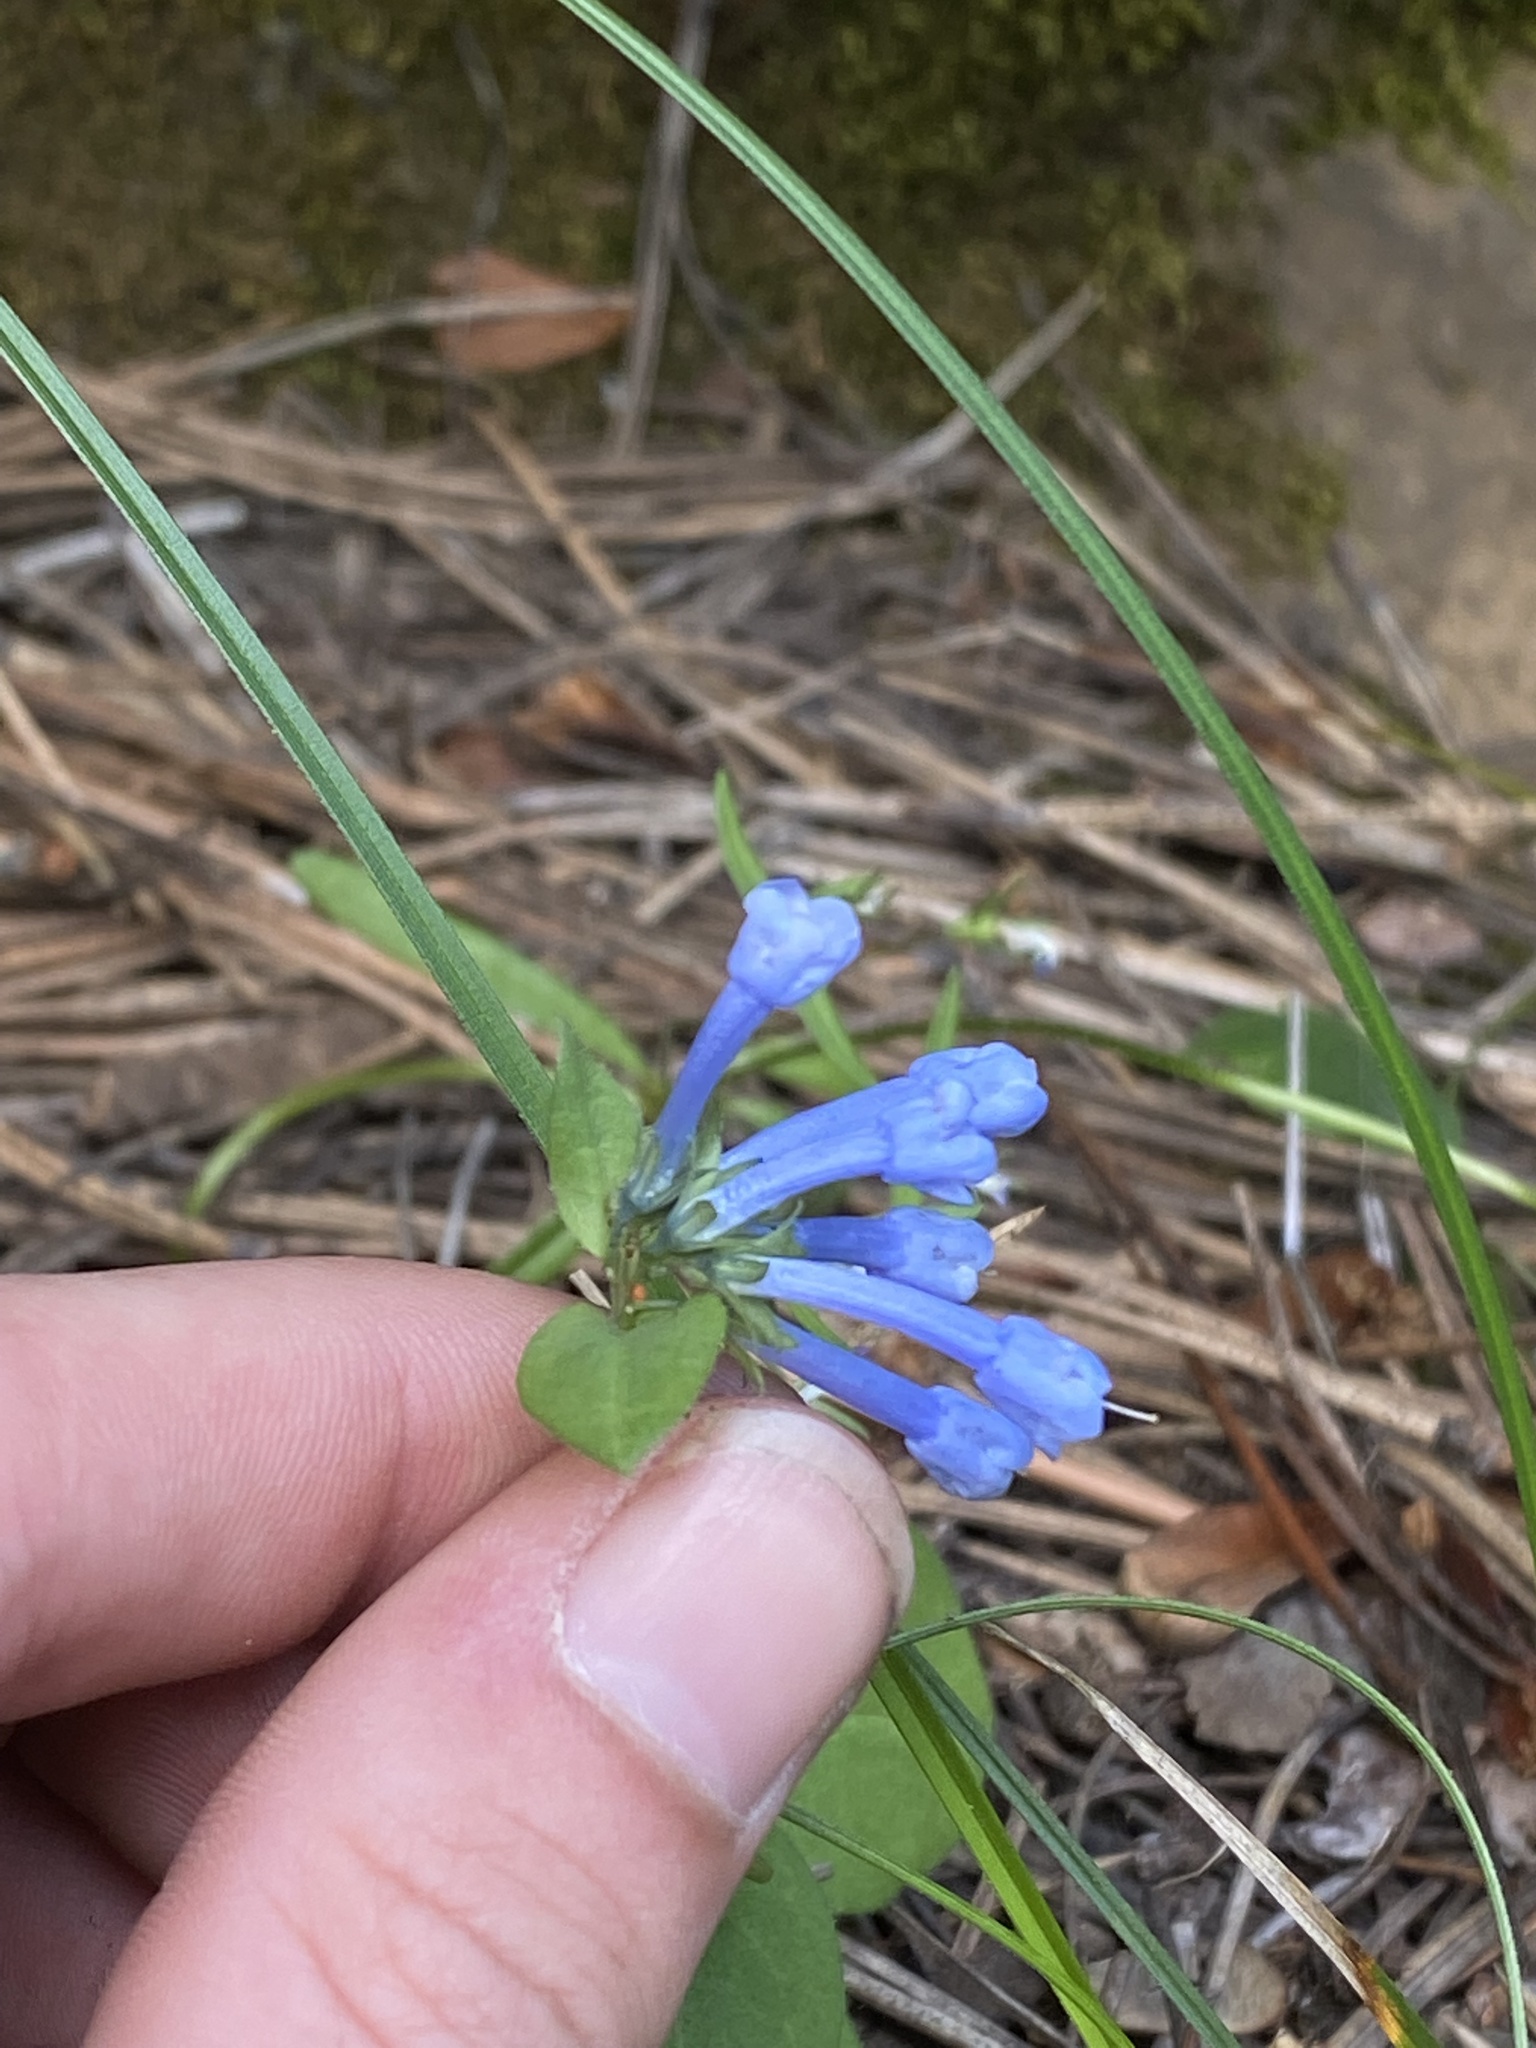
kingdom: Plantae
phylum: Tracheophyta
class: Magnoliopsida
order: Boraginales
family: Boraginaceae
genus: Mertensia
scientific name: Mertensia longiflora
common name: Large-flowered bluebells
